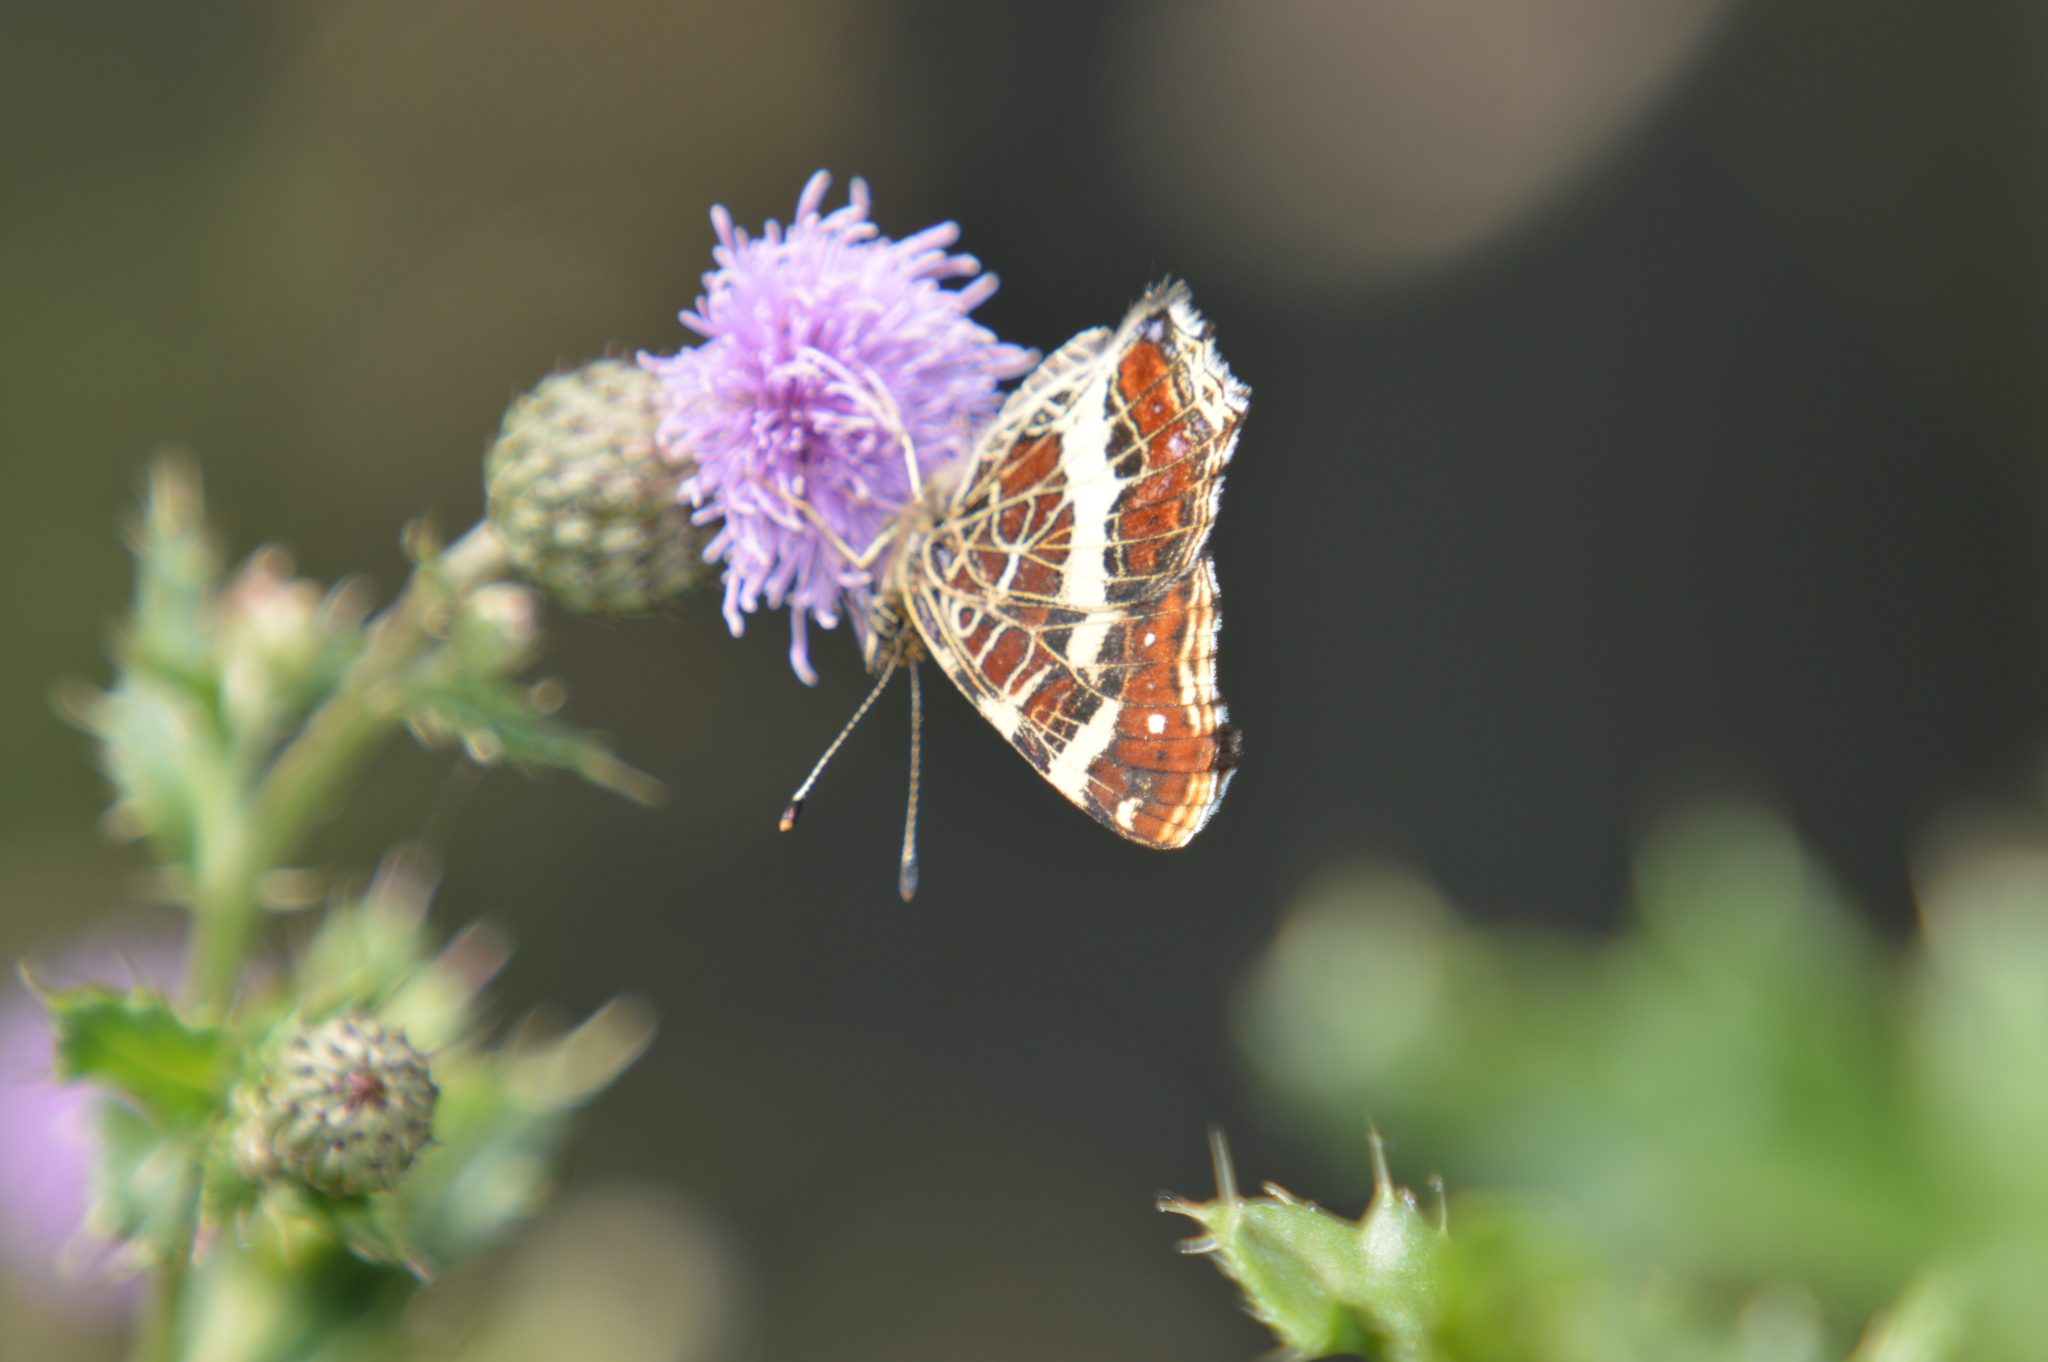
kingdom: Animalia
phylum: Arthropoda
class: Insecta
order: Lepidoptera
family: Nymphalidae
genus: Araschnia
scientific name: Araschnia levana
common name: Map butterfly
